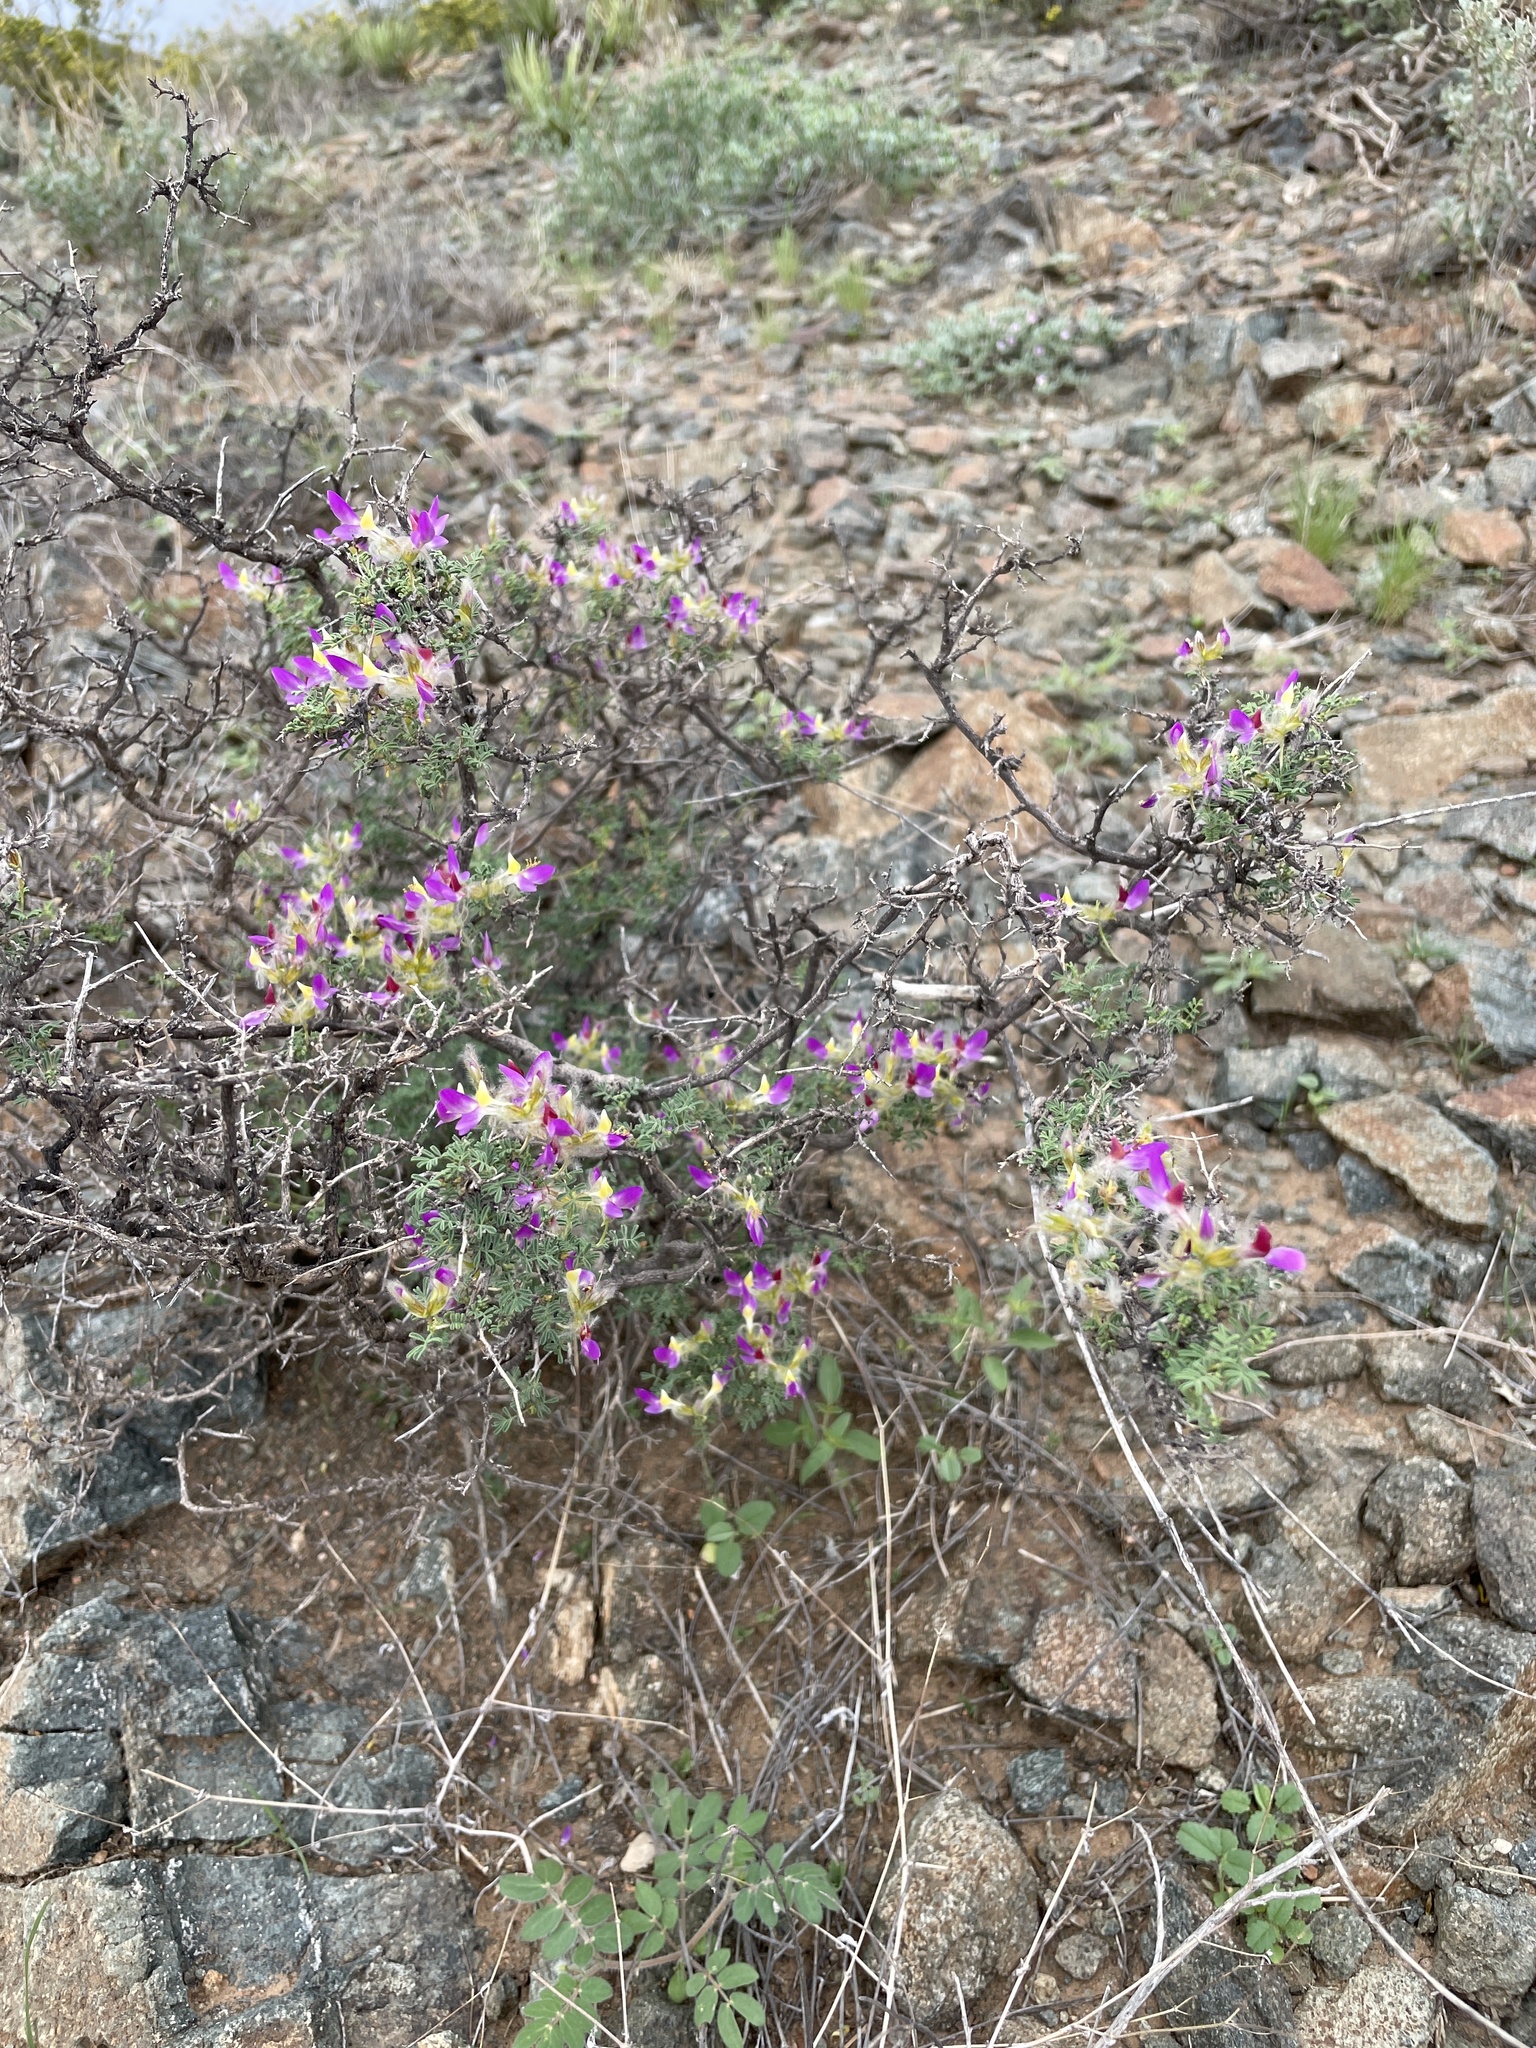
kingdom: Plantae
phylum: Tracheophyta
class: Magnoliopsida
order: Fabales
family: Fabaceae
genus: Dalea
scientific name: Dalea formosa
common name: Feather-plume dalea
